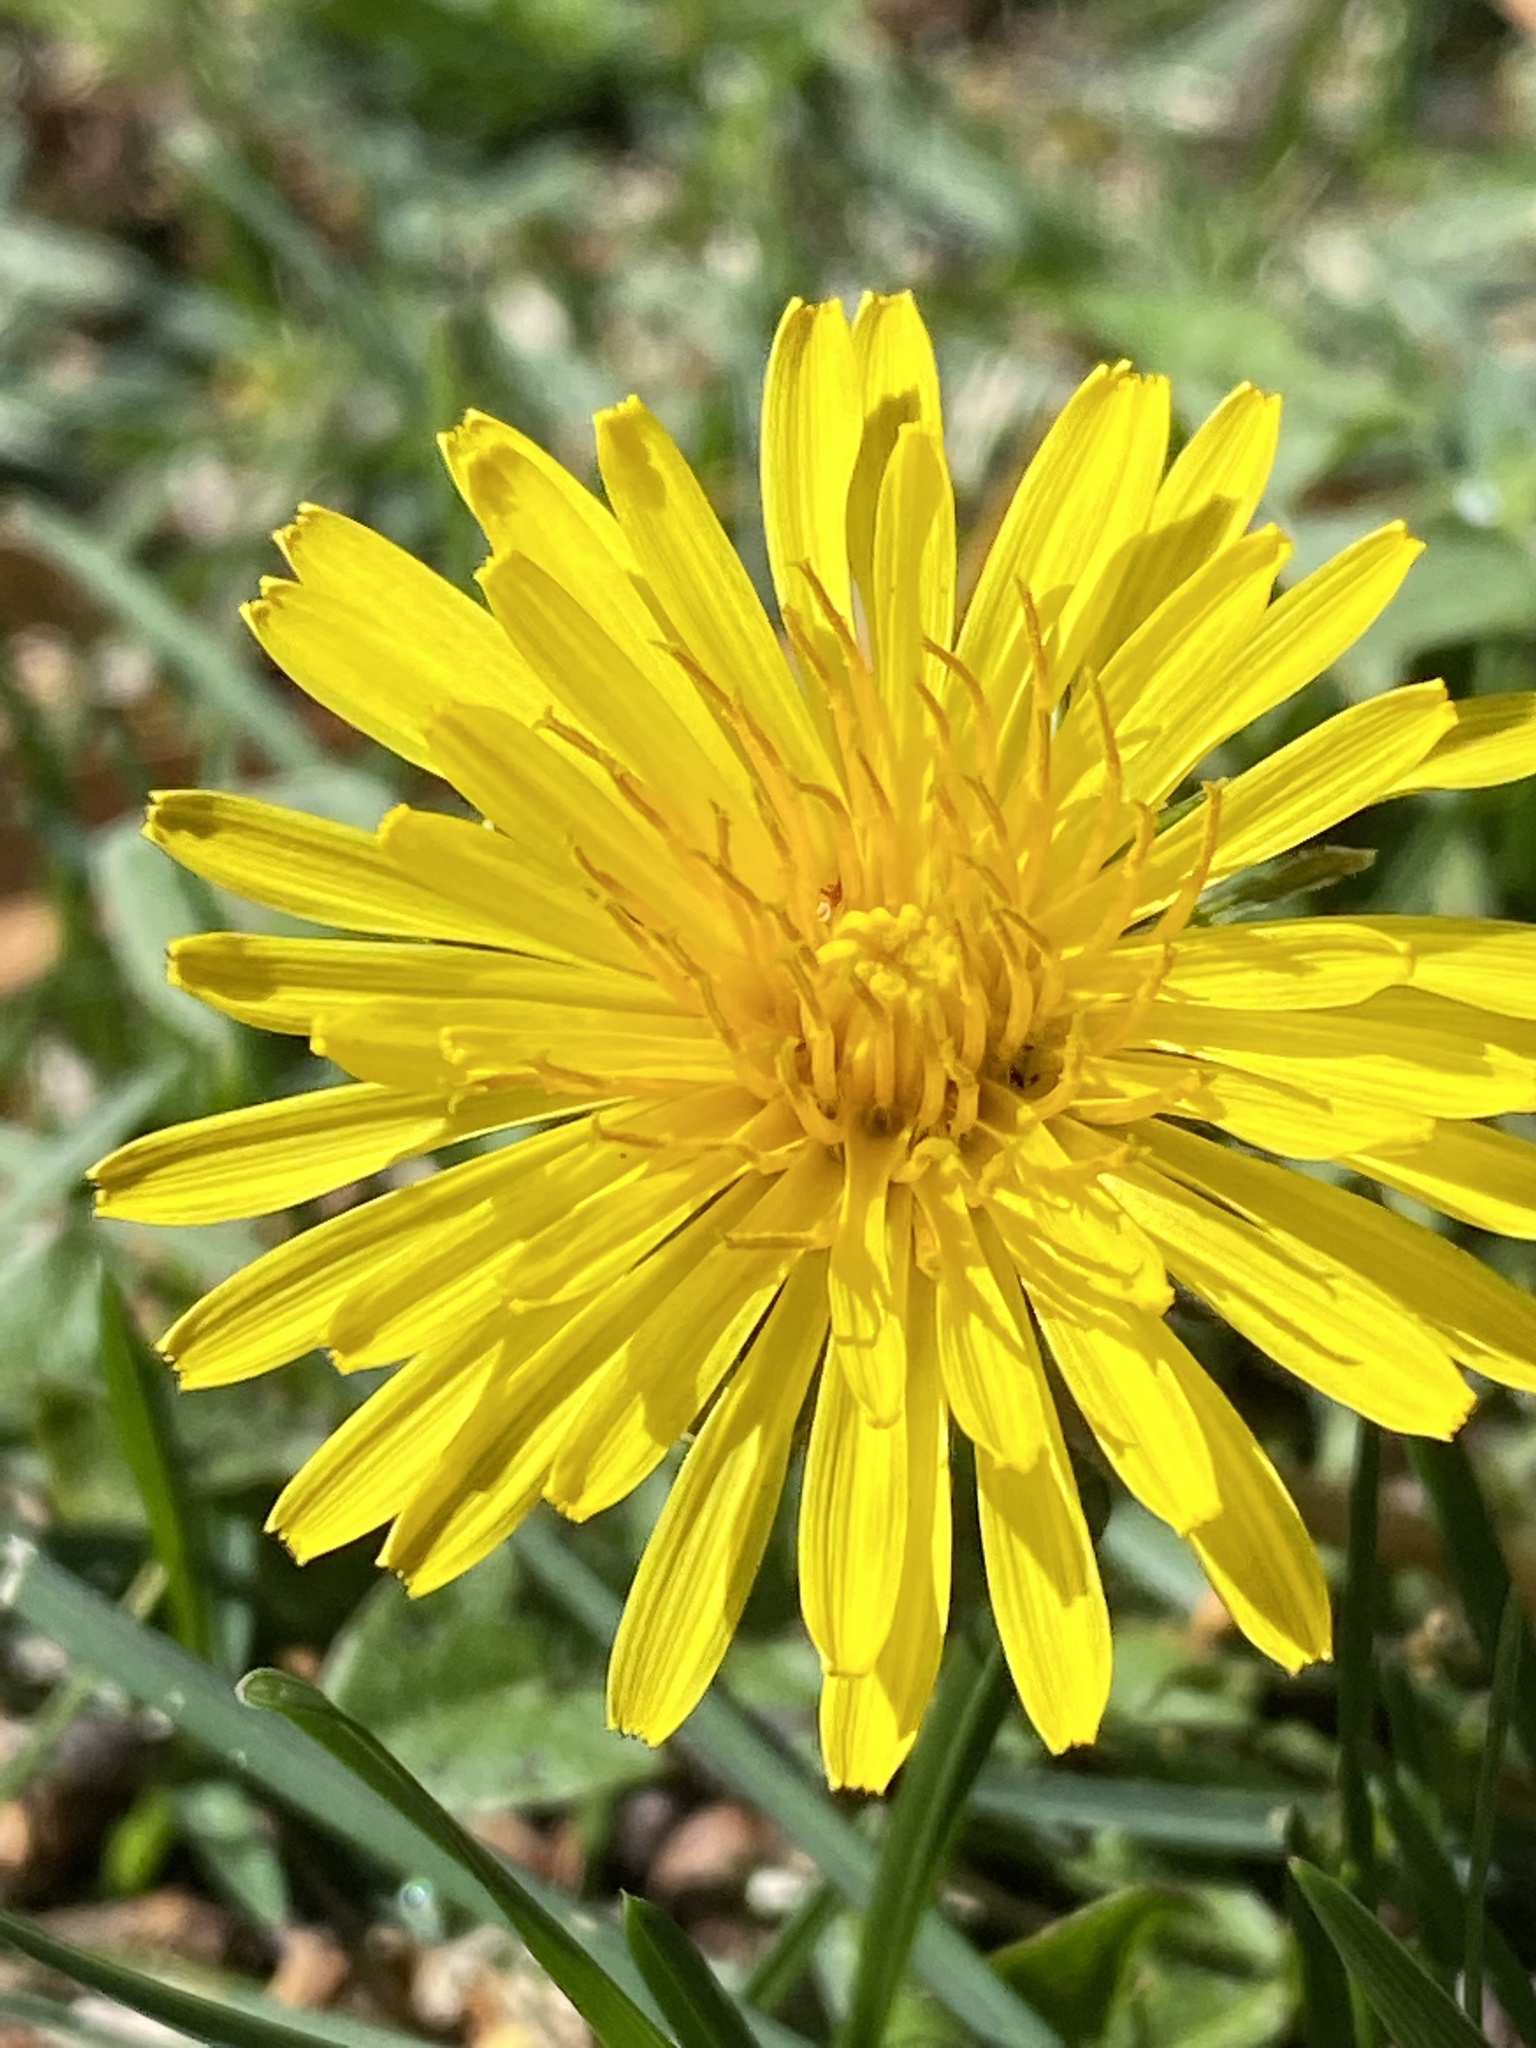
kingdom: Plantae
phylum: Tracheophyta
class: Magnoliopsida
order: Asterales
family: Asteraceae
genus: Taraxacum
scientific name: Taraxacum officinale
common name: Common dandelion
